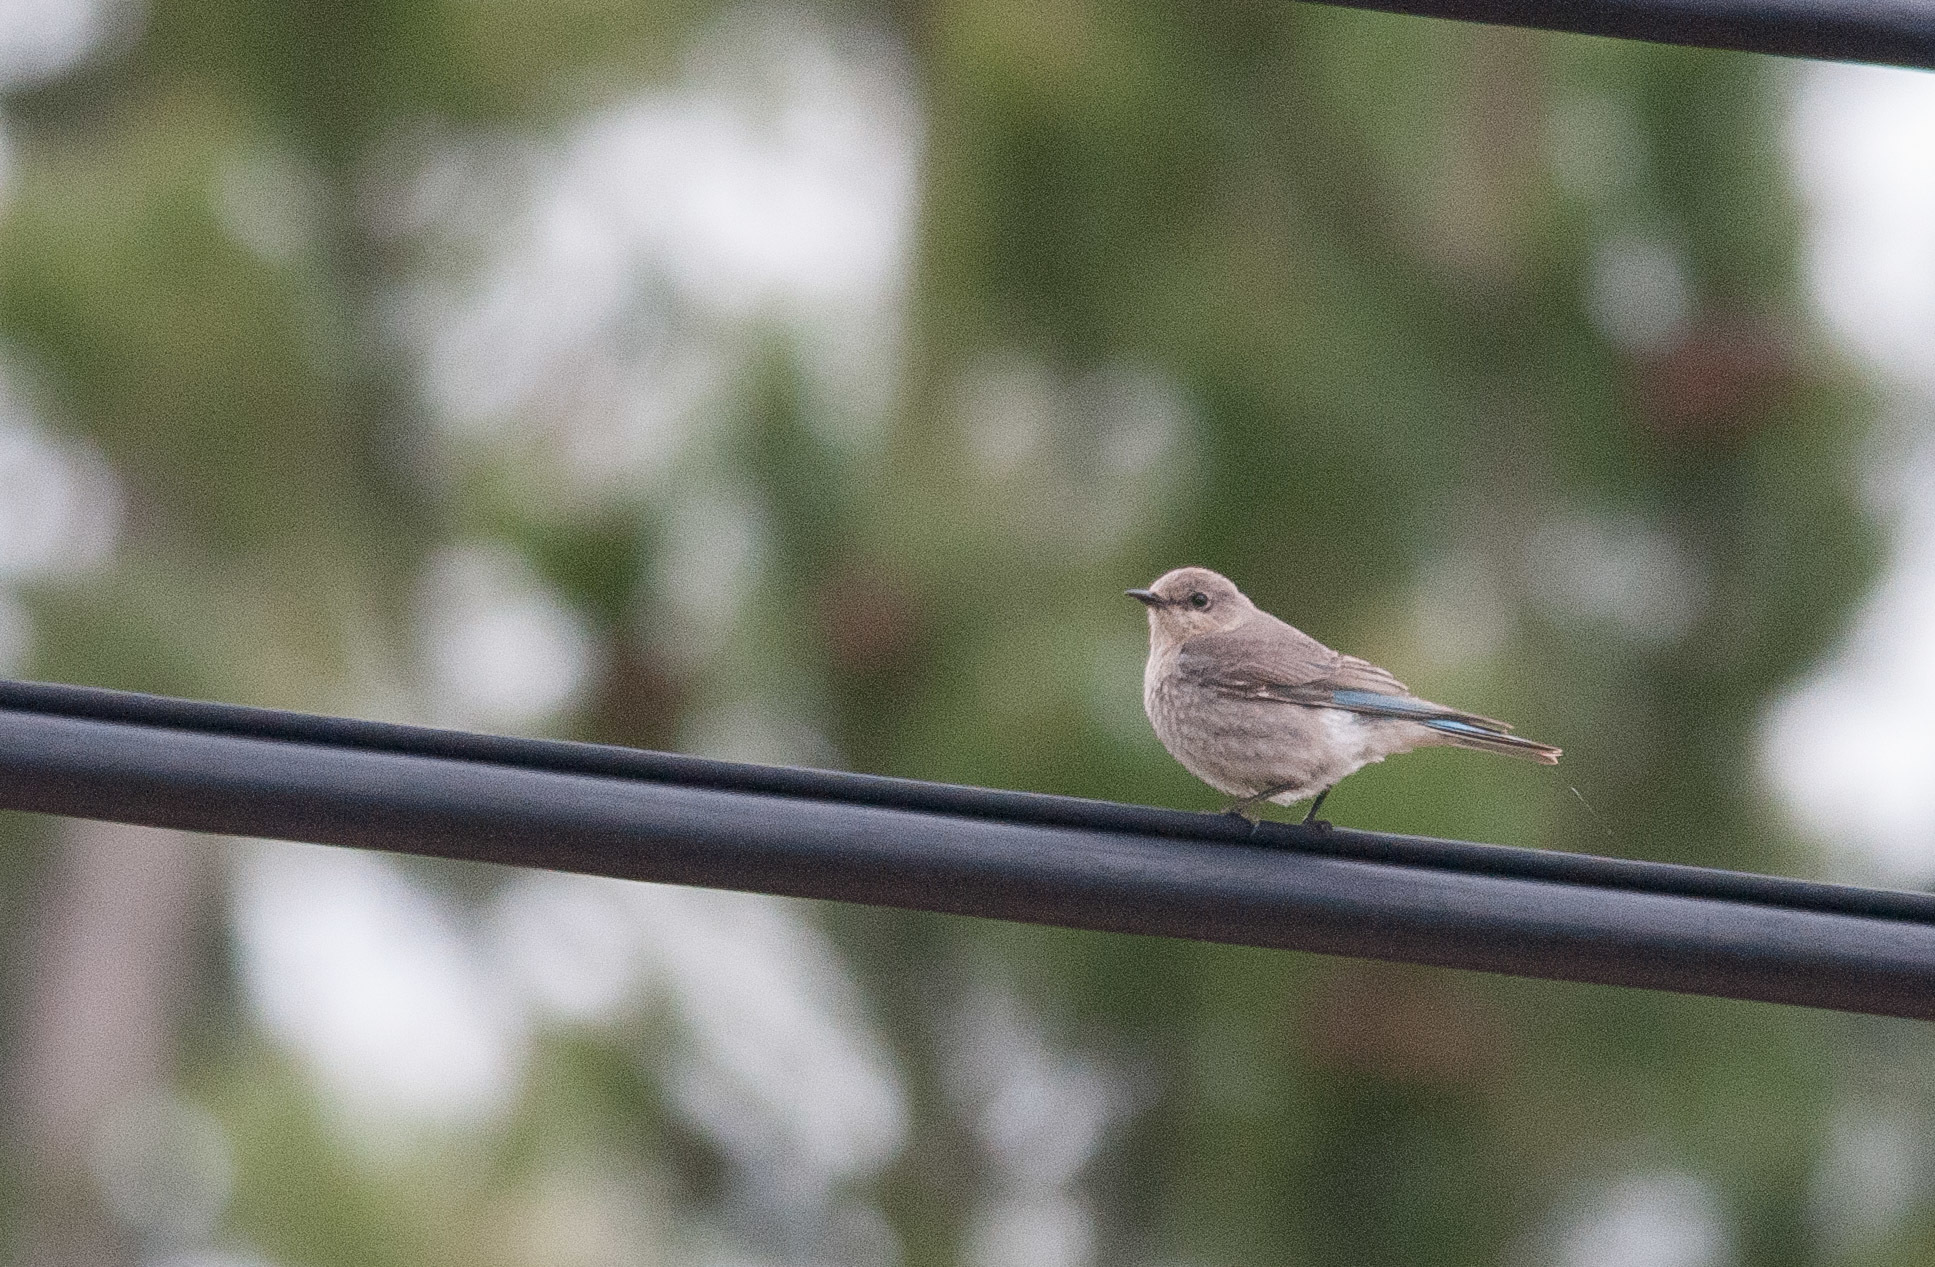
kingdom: Animalia
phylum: Chordata
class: Aves
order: Passeriformes
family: Turdidae
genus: Sialia
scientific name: Sialia currucoides
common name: Mountain bluebird
